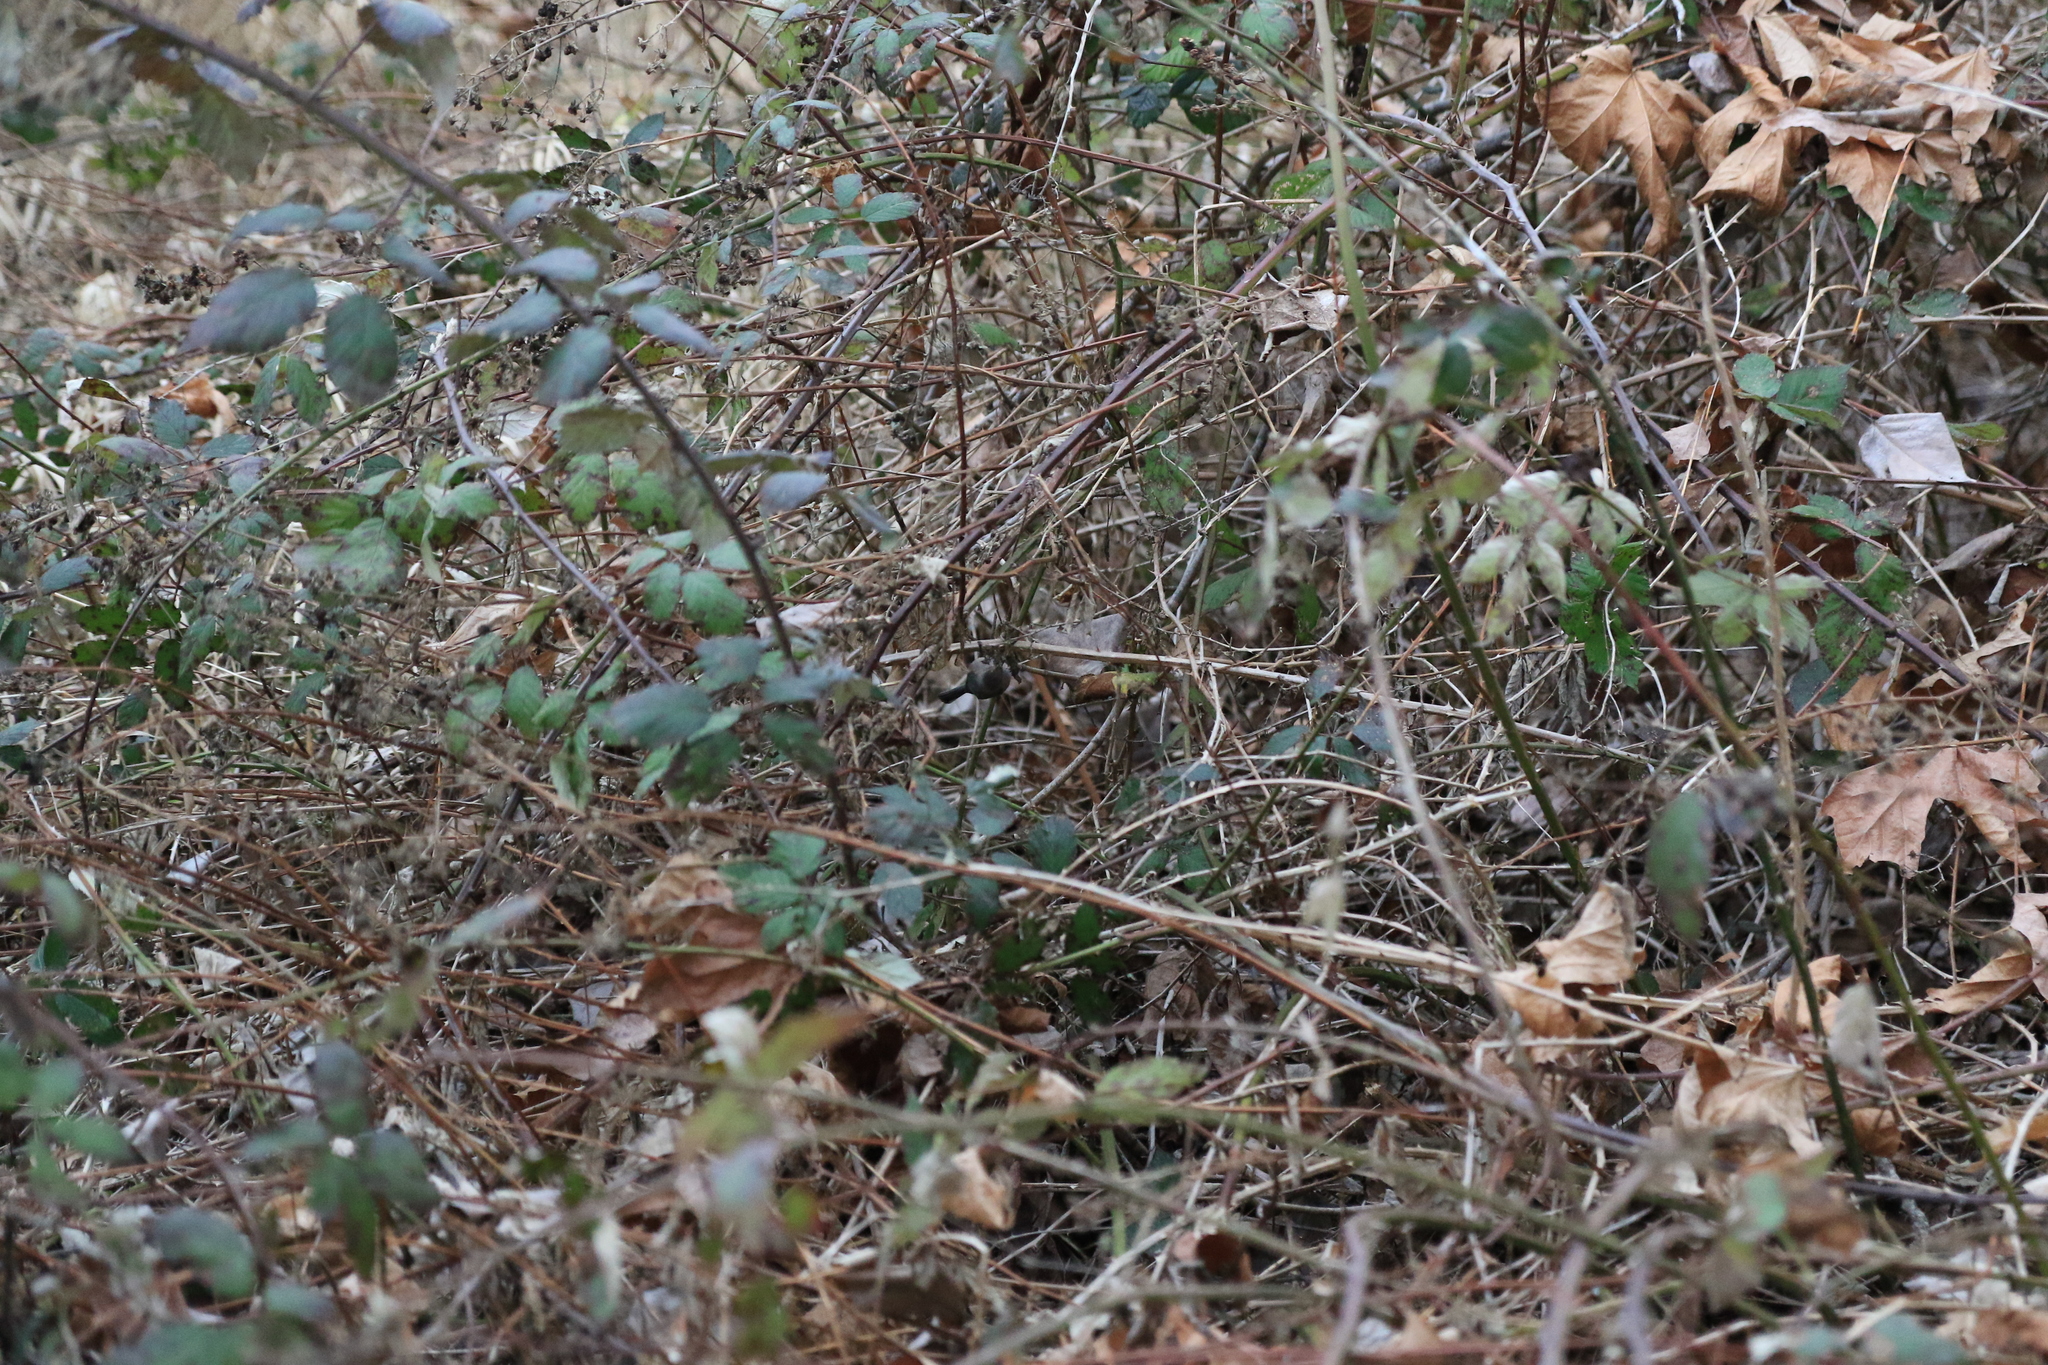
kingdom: Animalia
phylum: Chordata
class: Aves
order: Passeriformes
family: Aegithalidae
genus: Psaltriparus
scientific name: Psaltriparus minimus
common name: American bushtit
